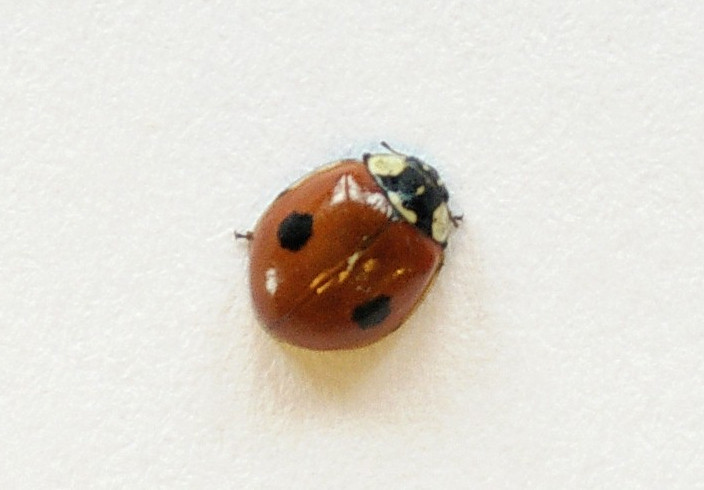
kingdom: Animalia
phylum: Arthropoda
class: Insecta
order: Coleoptera
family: Coccinellidae
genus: Adalia
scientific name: Adalia bipunctata
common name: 2-spot ladybird
